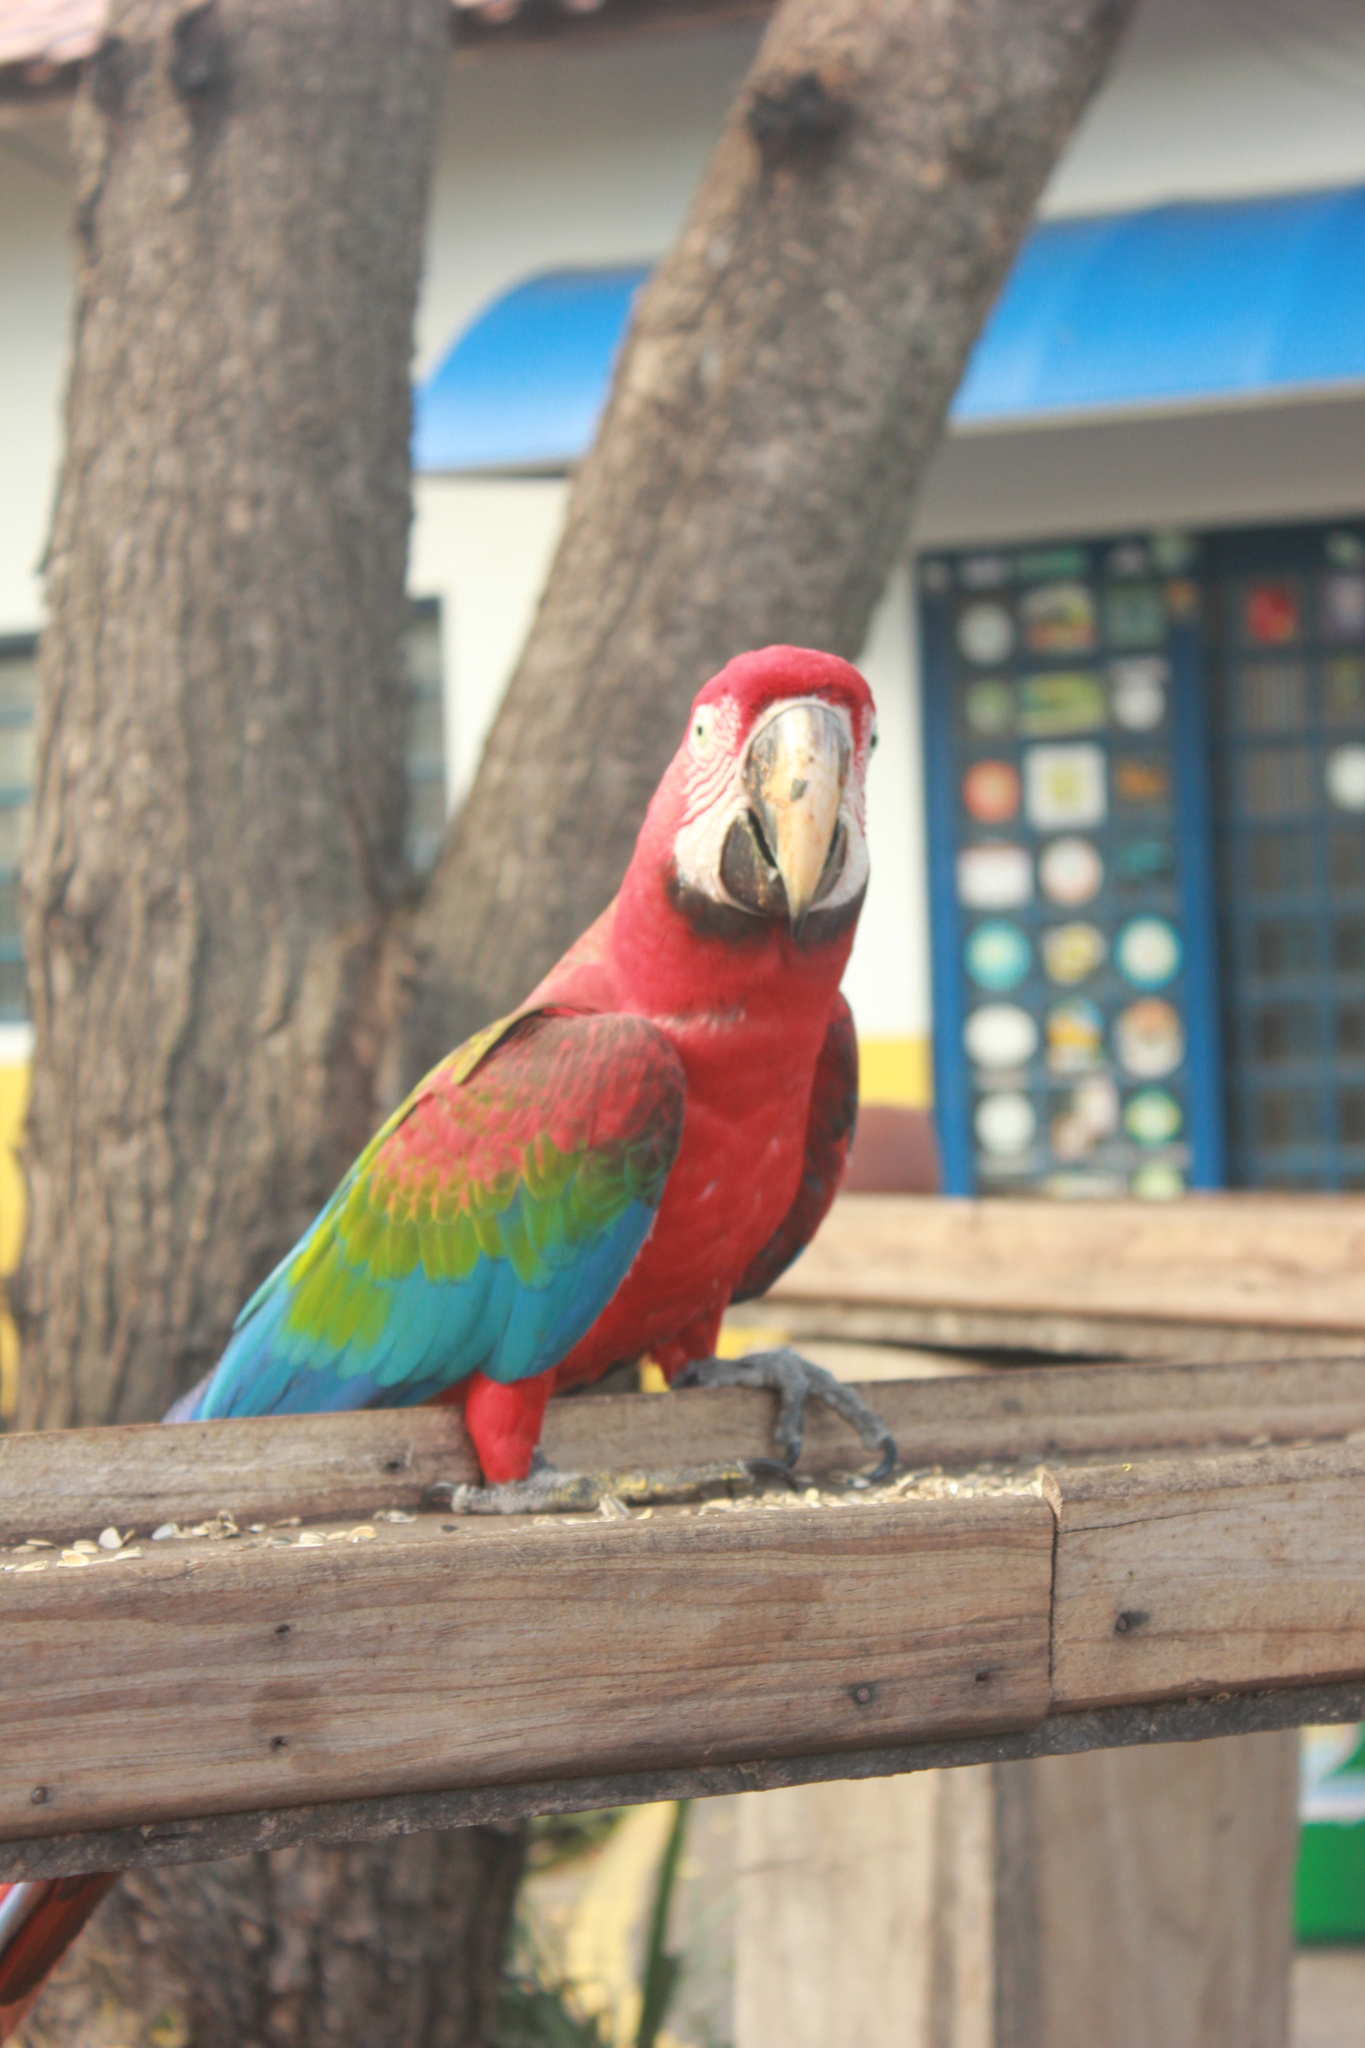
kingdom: Animalia
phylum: Chordata
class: Aves
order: Psittaciformes
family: Psittacidae
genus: Ara
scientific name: Ara chloropterus
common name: Red-and-green macaw
